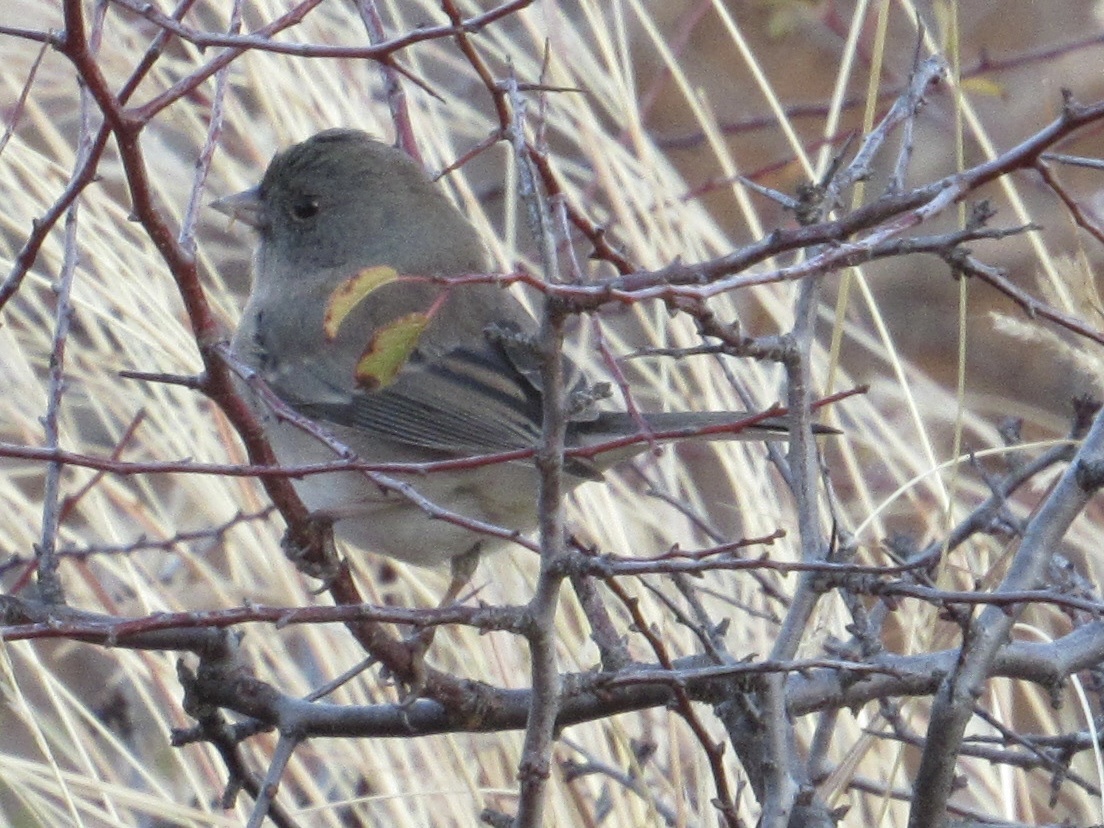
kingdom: Animalia
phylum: Chordata
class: Aves
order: Passeriformes
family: Passerellidae
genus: Junco
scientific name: Junco hyemalis
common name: Dark-eyed junco
